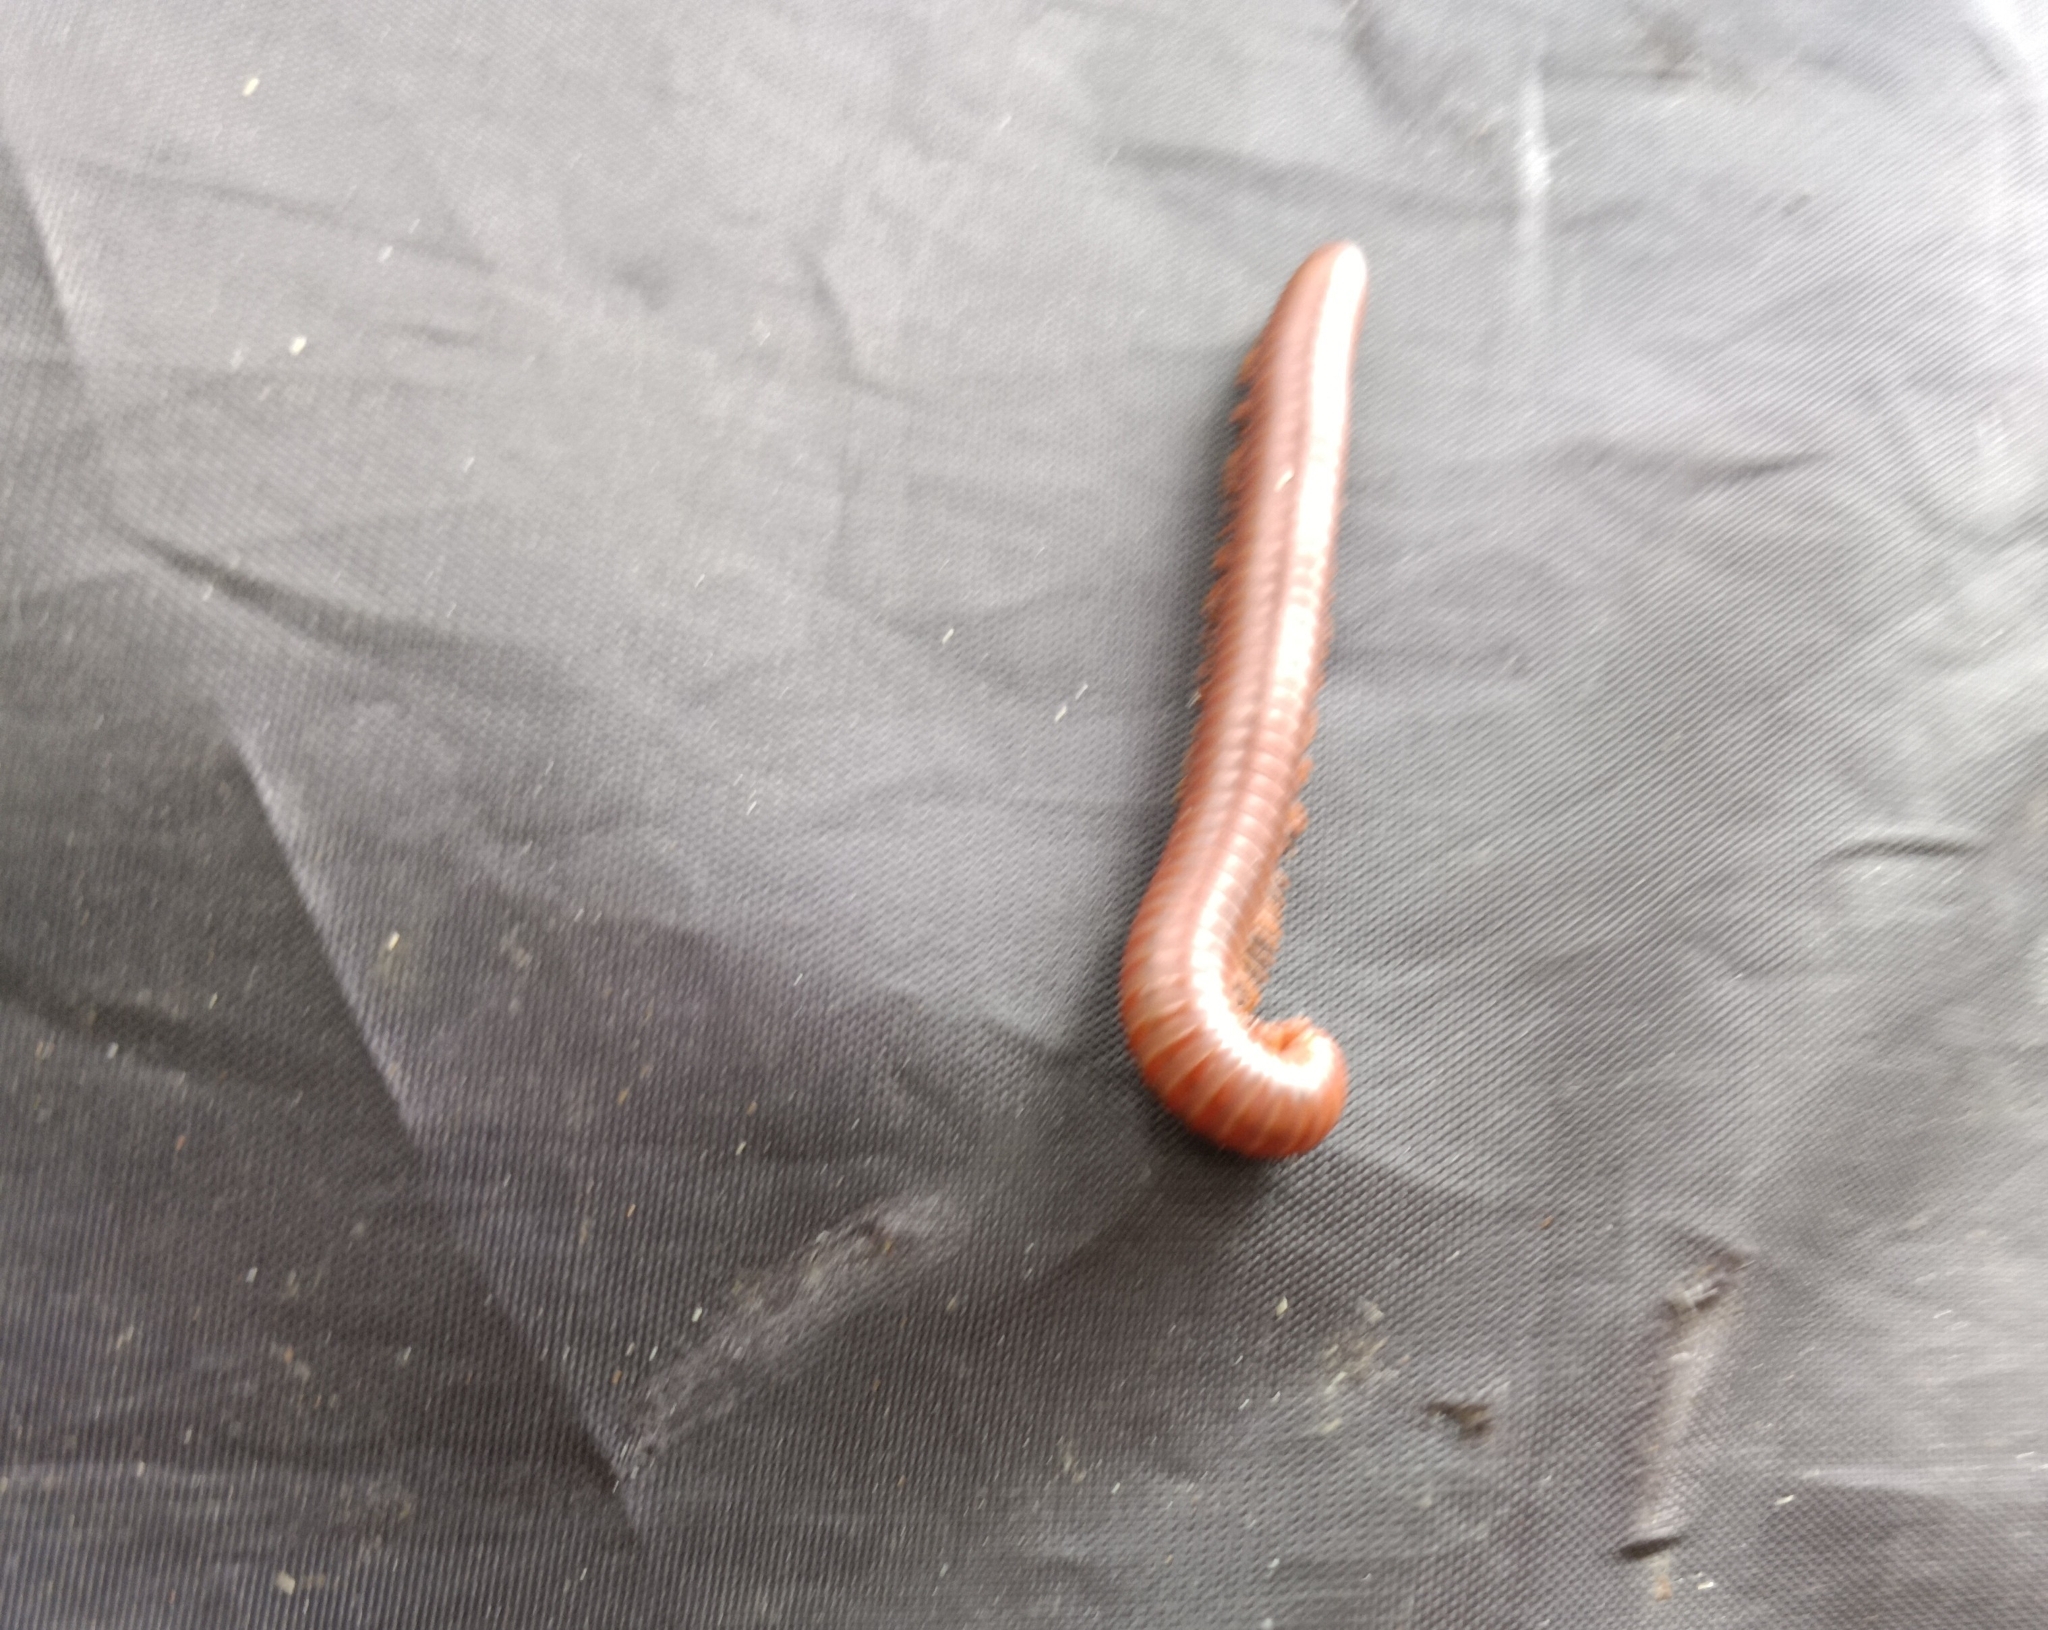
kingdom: Animalia
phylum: Arthropoda
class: Diplopoda
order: Spirobolida
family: Pachybolidae
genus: Trigoniulus
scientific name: Trigoniulus corallinus
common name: Millipede
